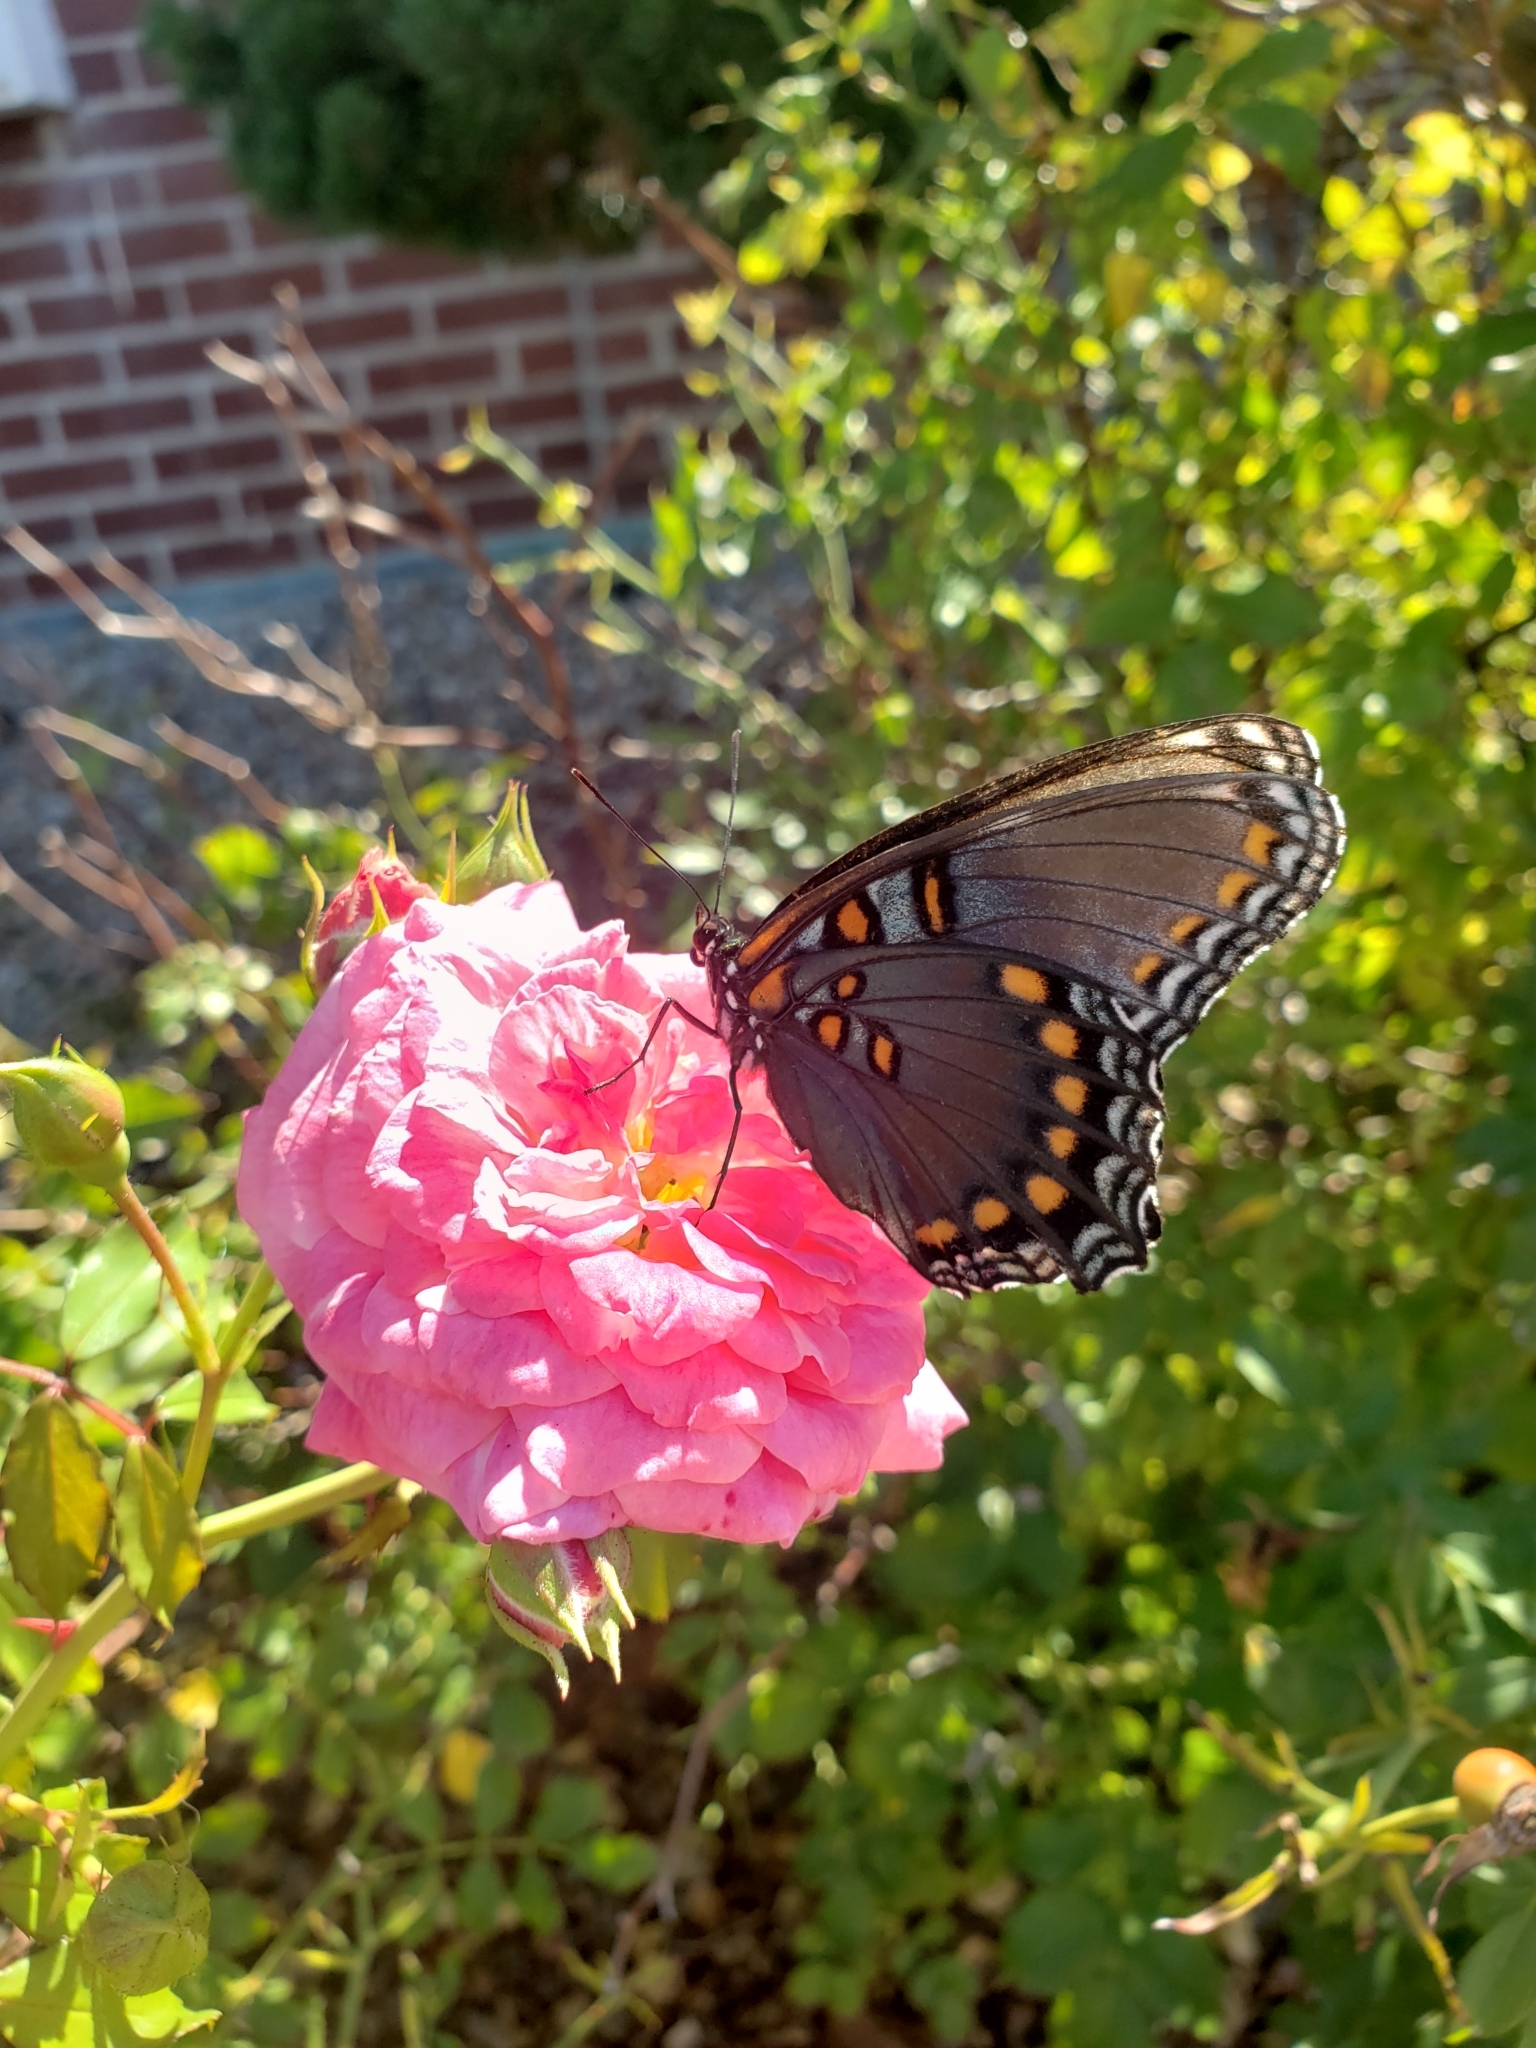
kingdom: Animalia
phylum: Arthropoda
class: Insecta
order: Lepidoptera
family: Nymphalidae
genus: Limenitis
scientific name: Limenitis astyanax
